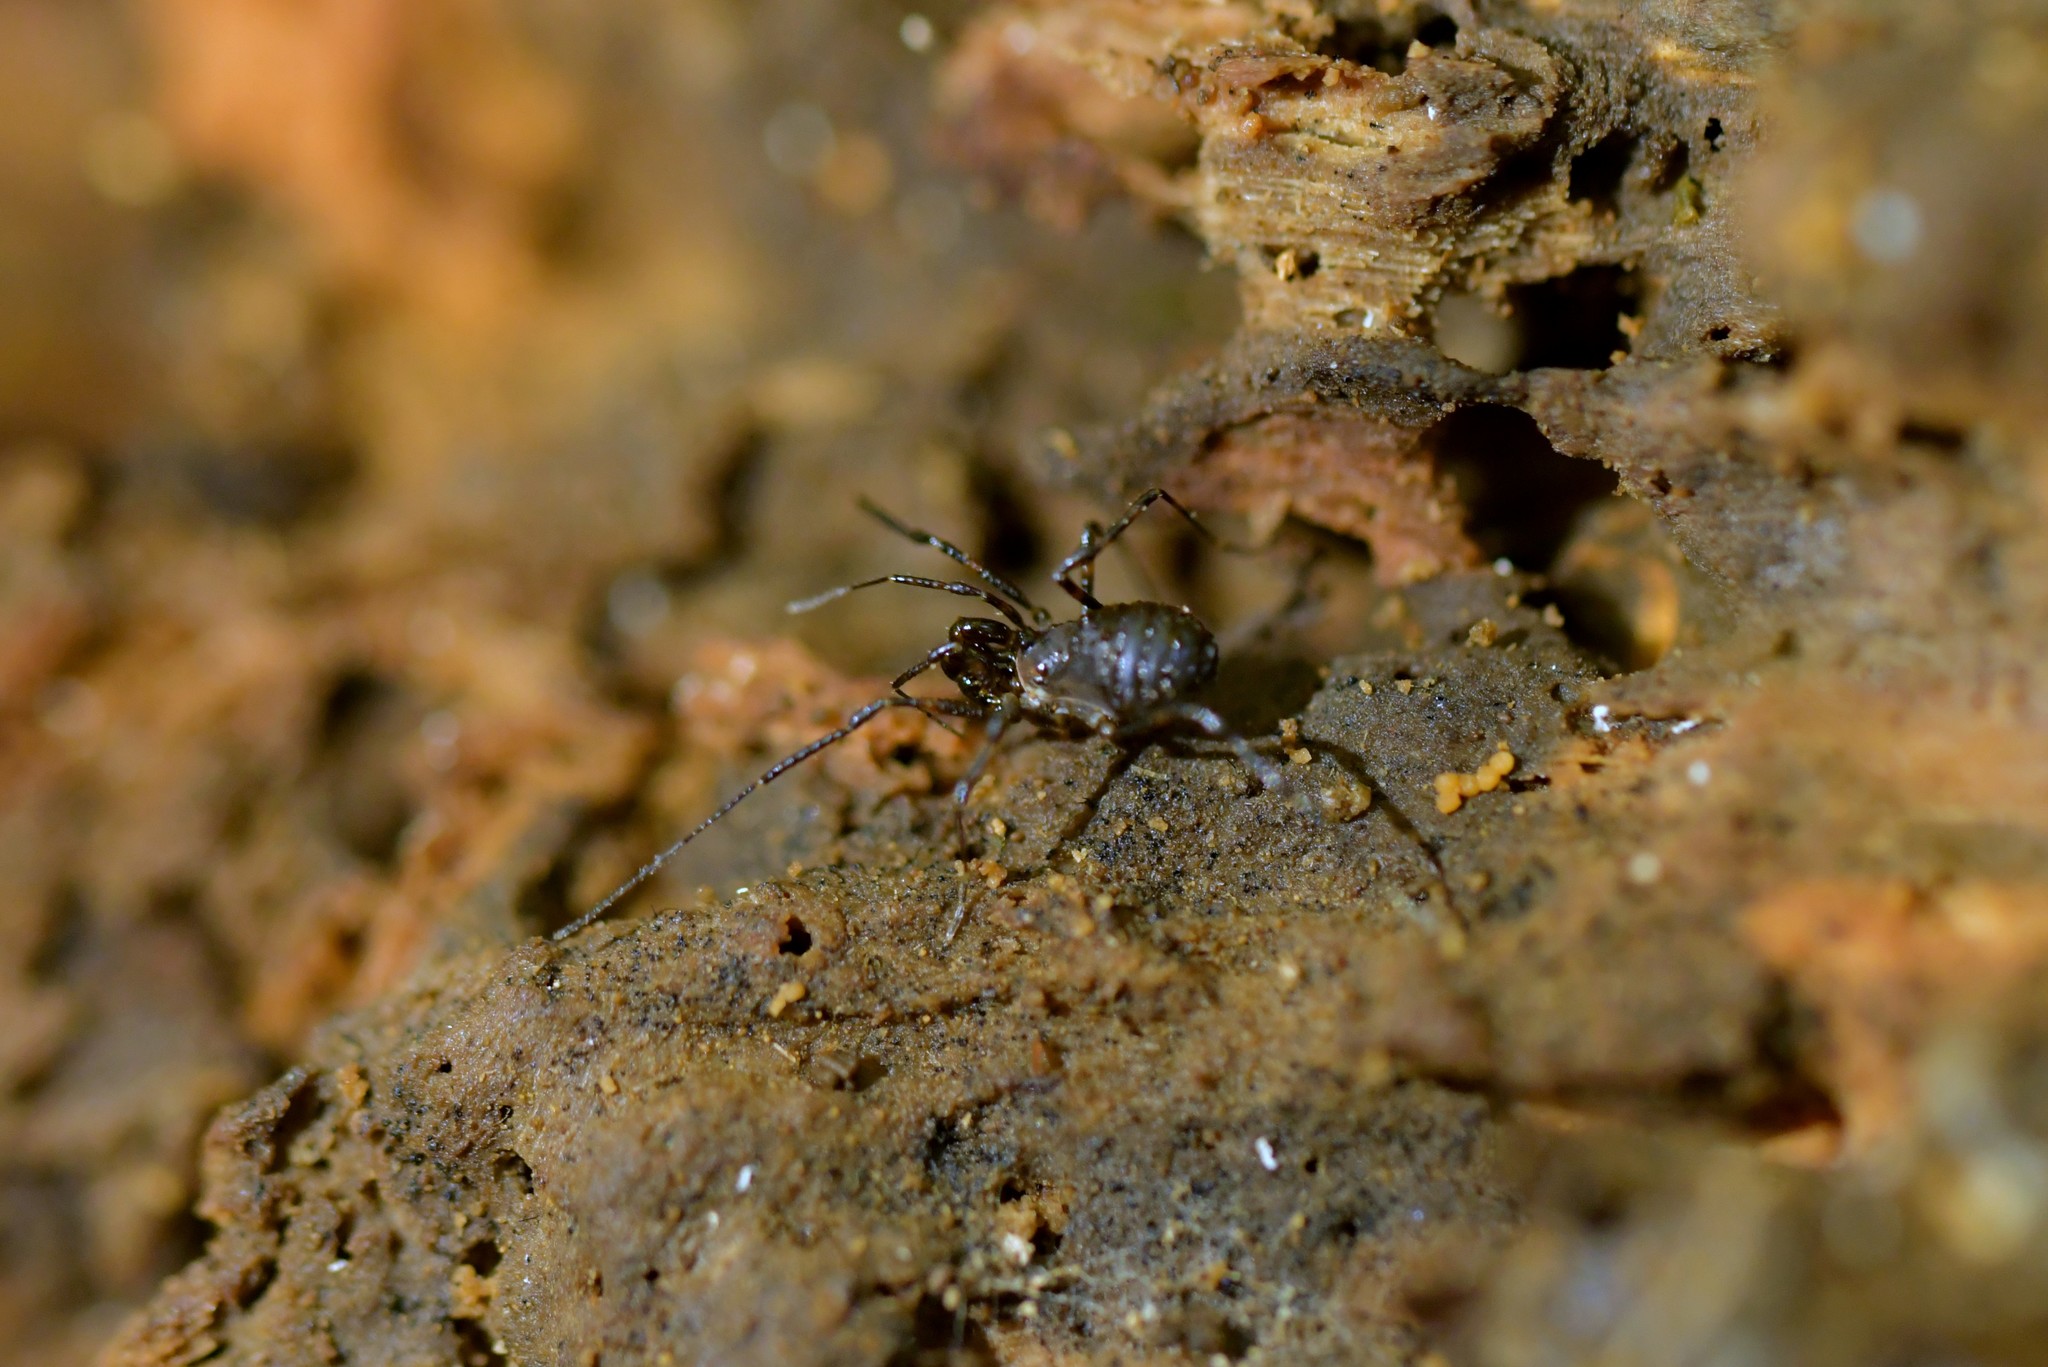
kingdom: Animalia
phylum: Arthropoda
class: Arachnida
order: Opiliones
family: Triaenonychidae
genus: Hendea
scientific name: Hendea myersi
